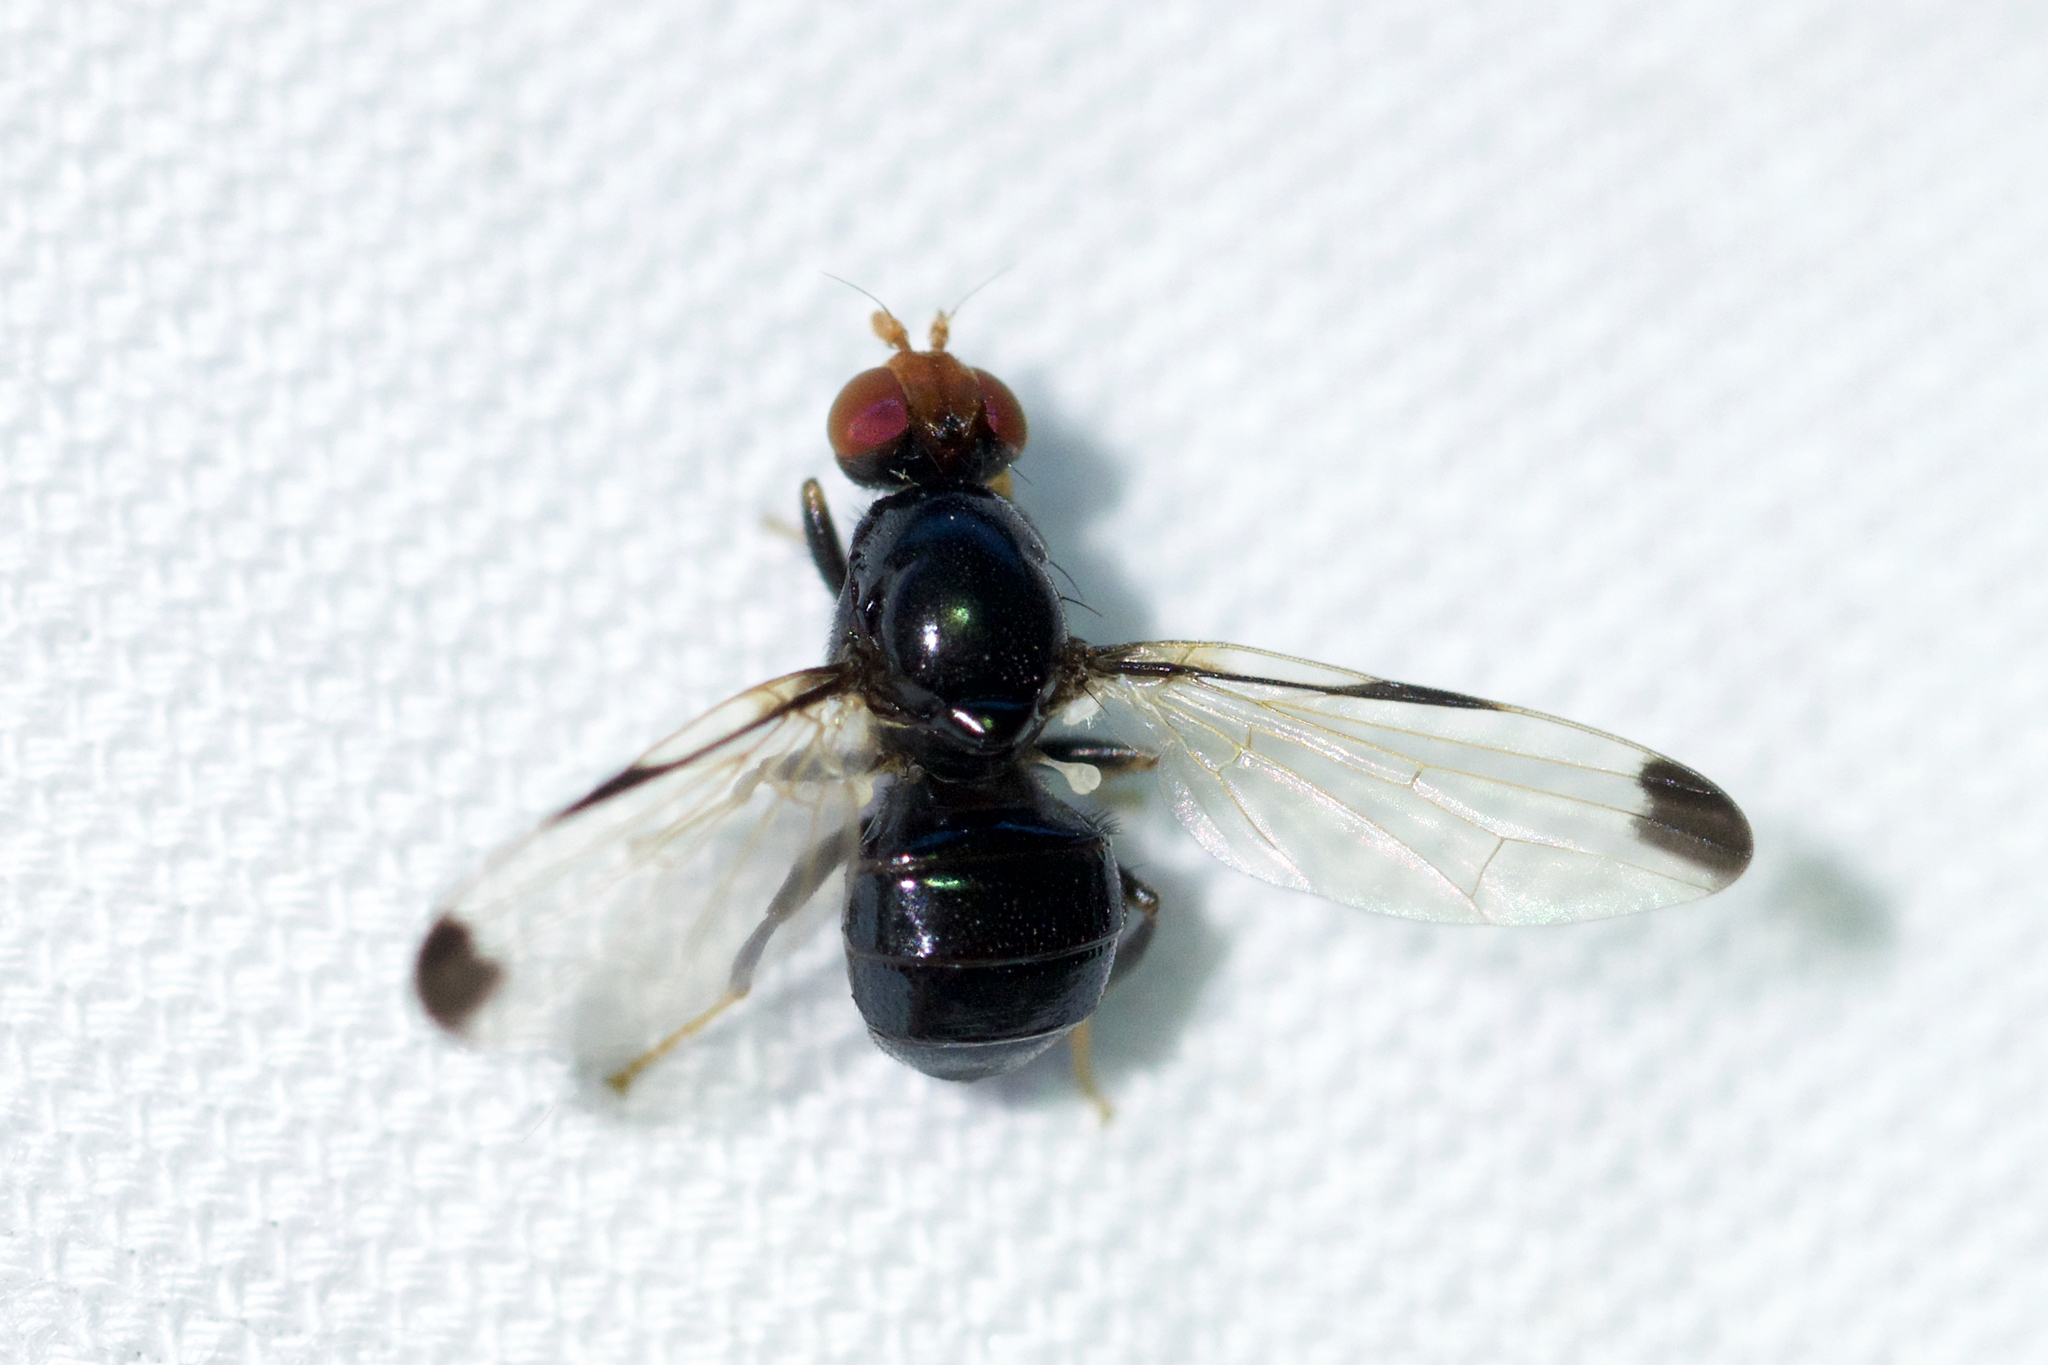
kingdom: Animalia
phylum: Arthropoda
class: Insecta
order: Diptera
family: Ulidiidae
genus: Pseudoseioptera
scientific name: Pseudoseioptera albipes
